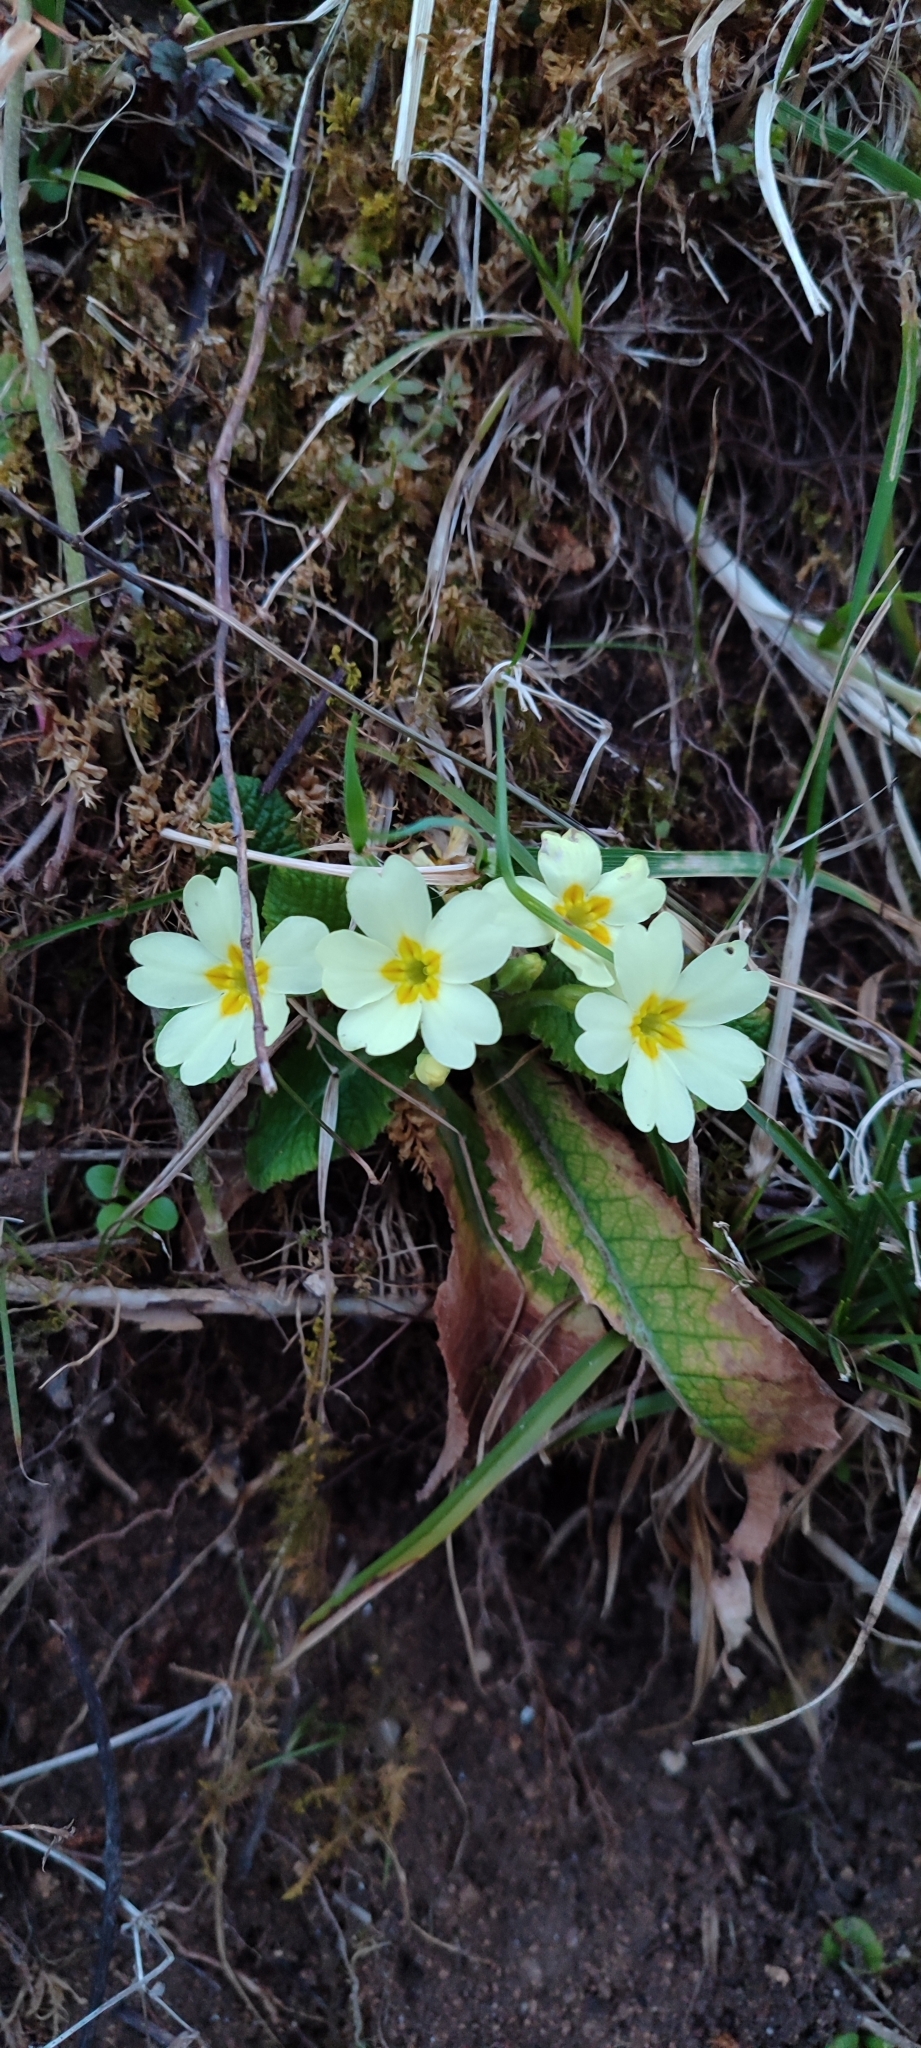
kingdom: Plantae
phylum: Tracheophyta
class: Magnoliopsida
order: Ericales
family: Primulaceae
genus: Primula
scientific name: Primula vulgaris
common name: Primrose
